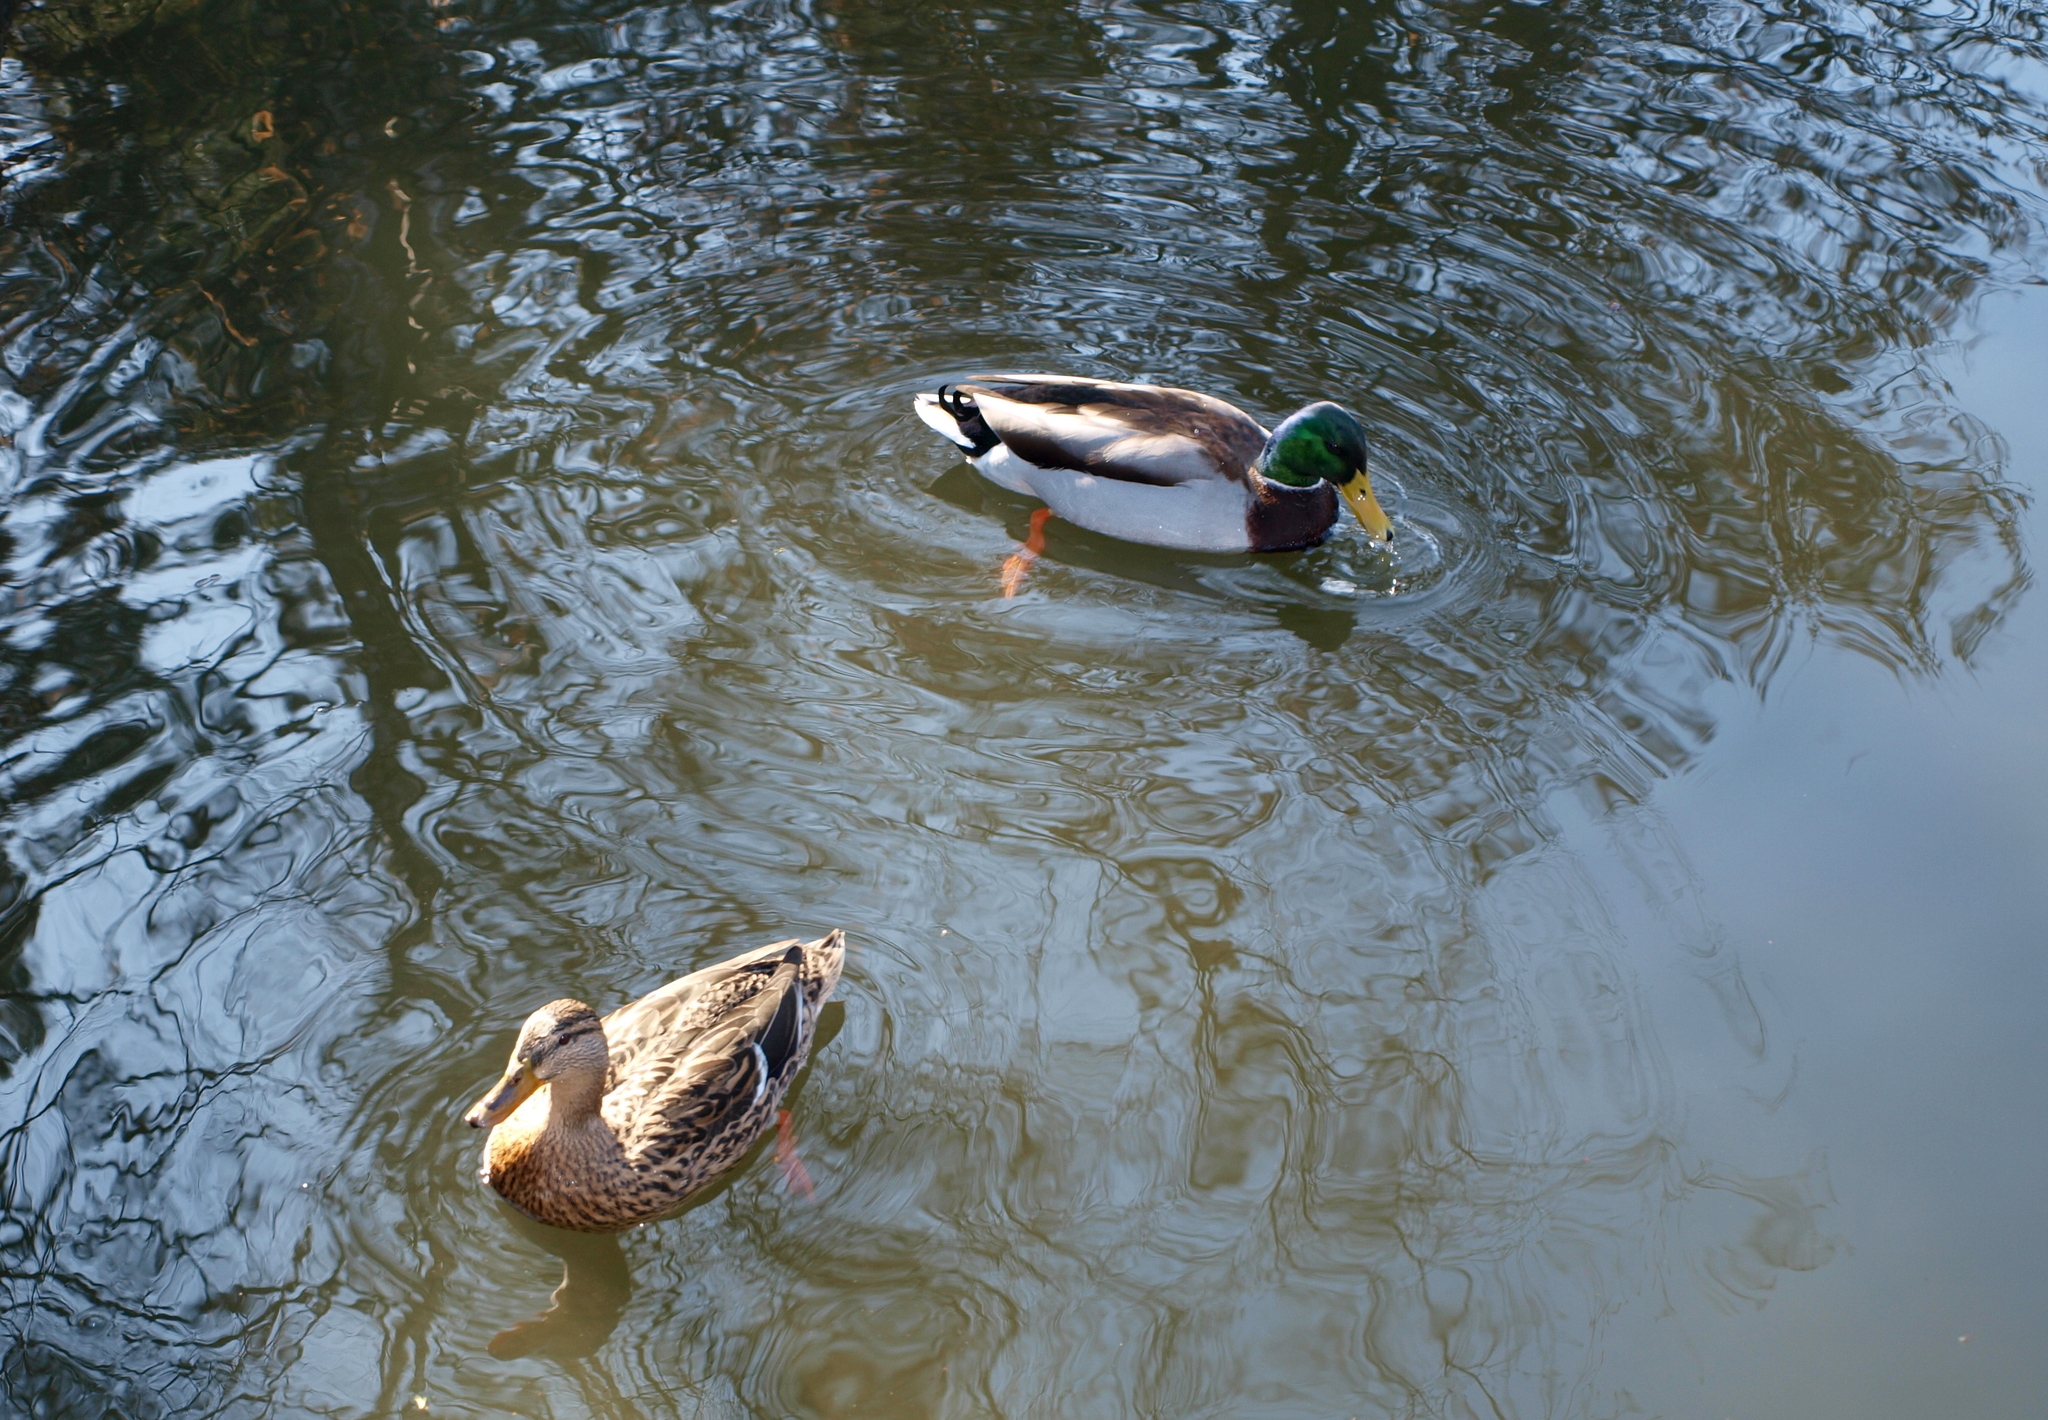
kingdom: Animalia
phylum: Chordata
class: Aves
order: Anseriformes
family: Anatidae
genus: Anas
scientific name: Anas platyrhynchos
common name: Mallard
